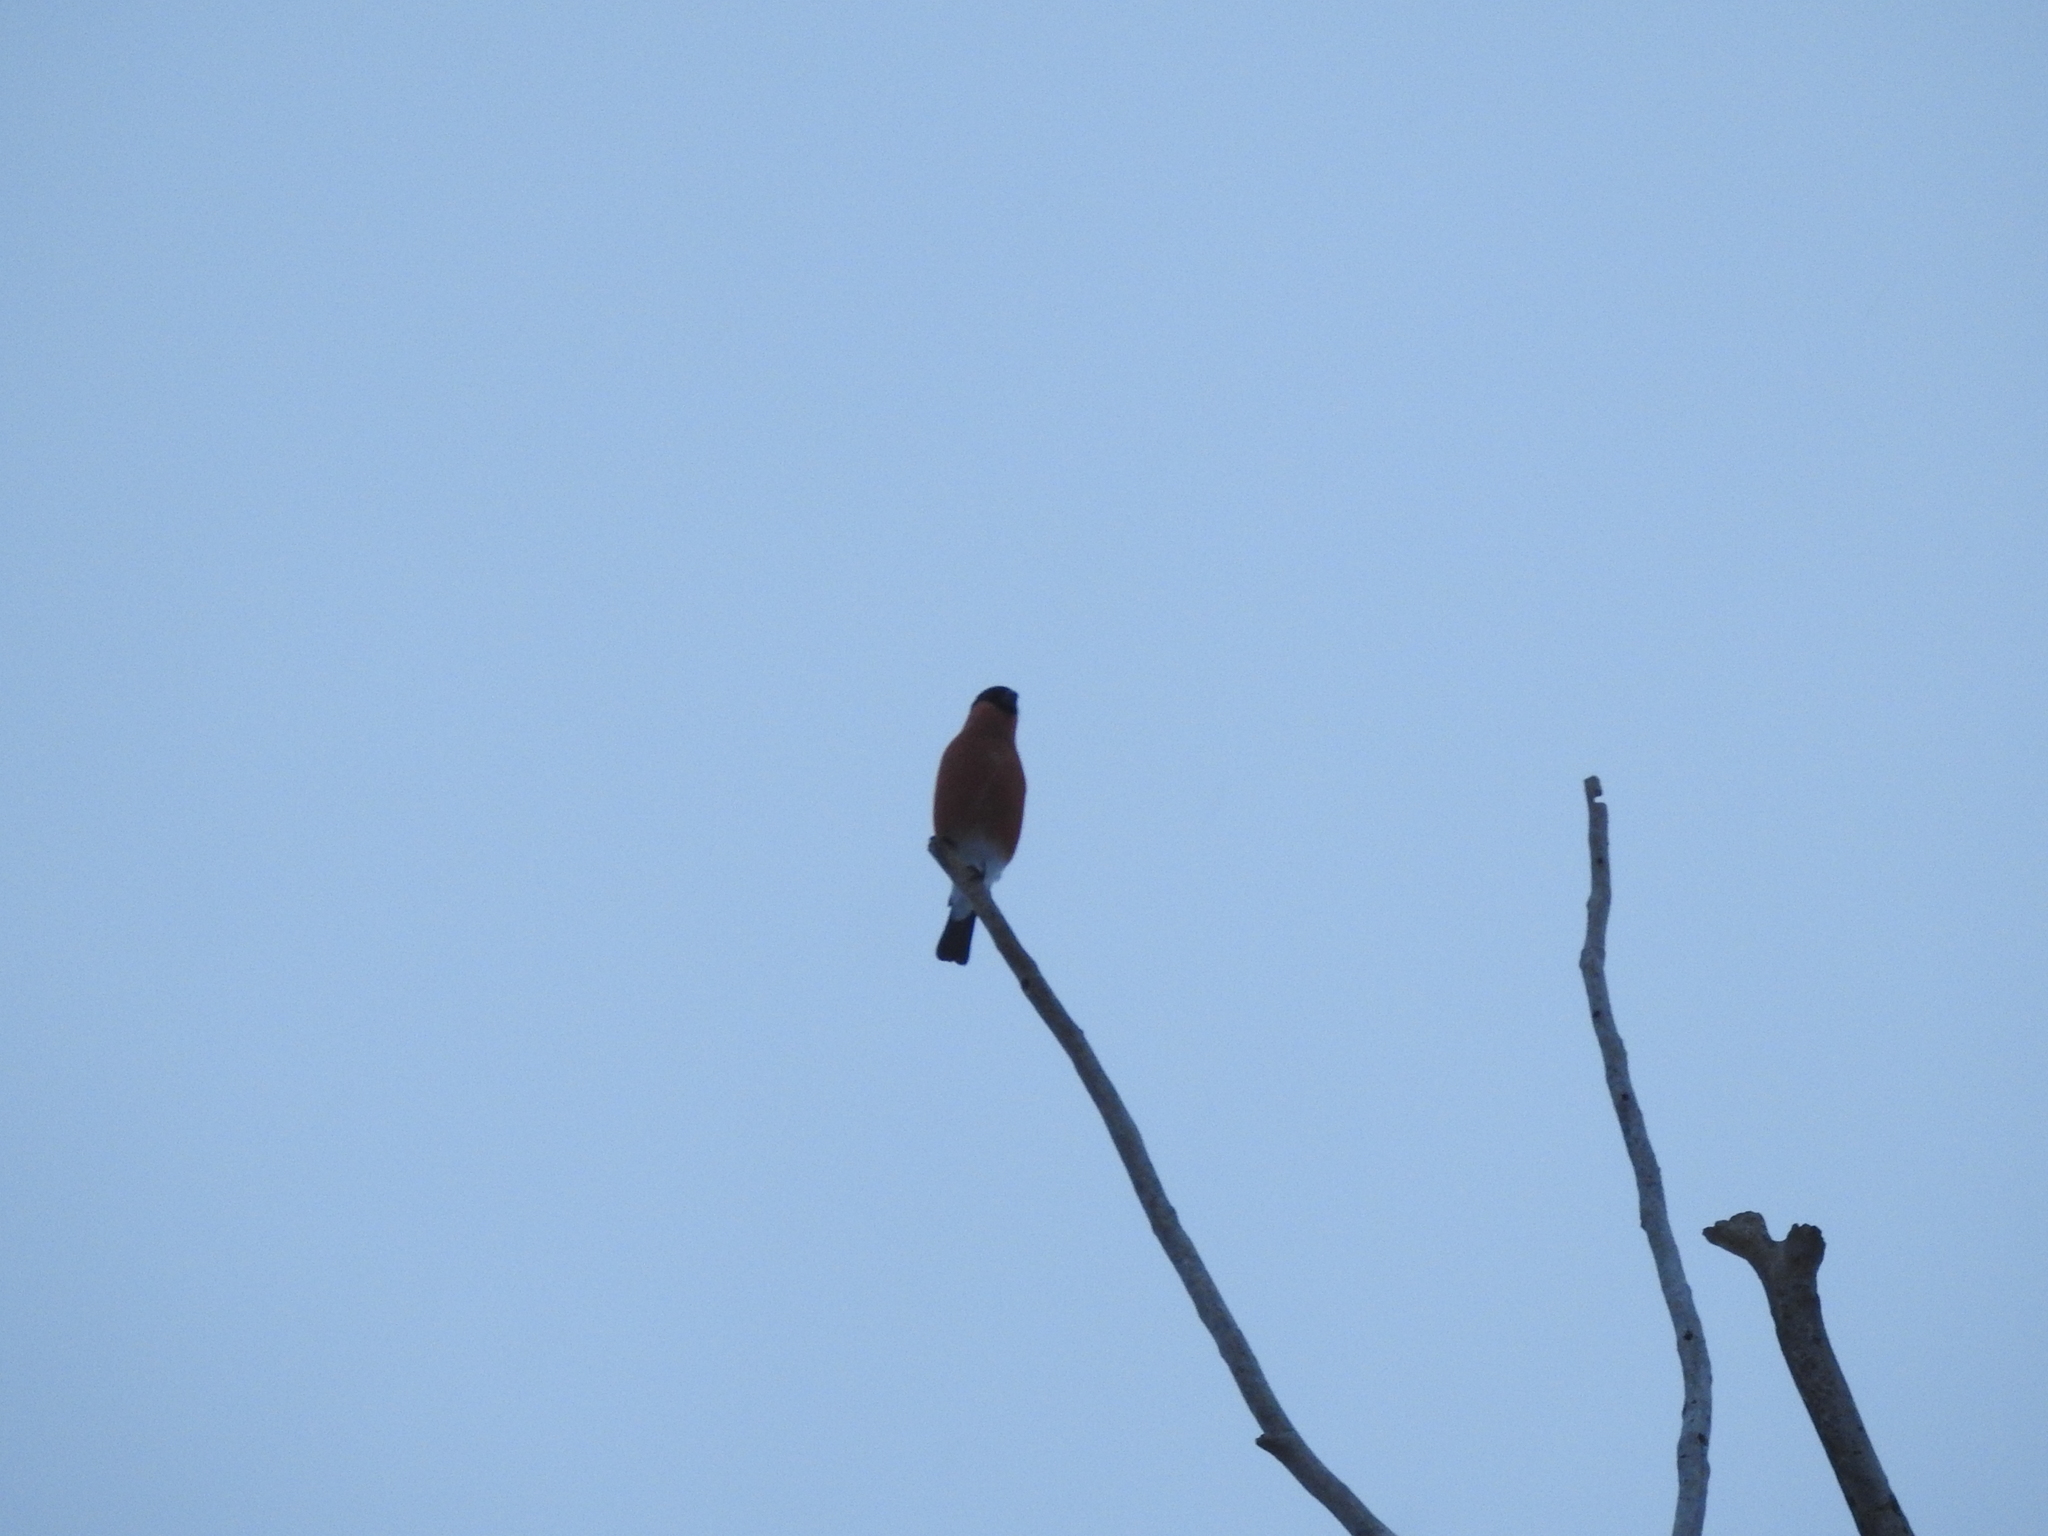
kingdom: Animalia
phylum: Chordata
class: Aves
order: Passeriformes
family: Fringillidae
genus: Pyrrhula
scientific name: Pyrrhula pyrrhula
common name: Eurasian bullfinch
